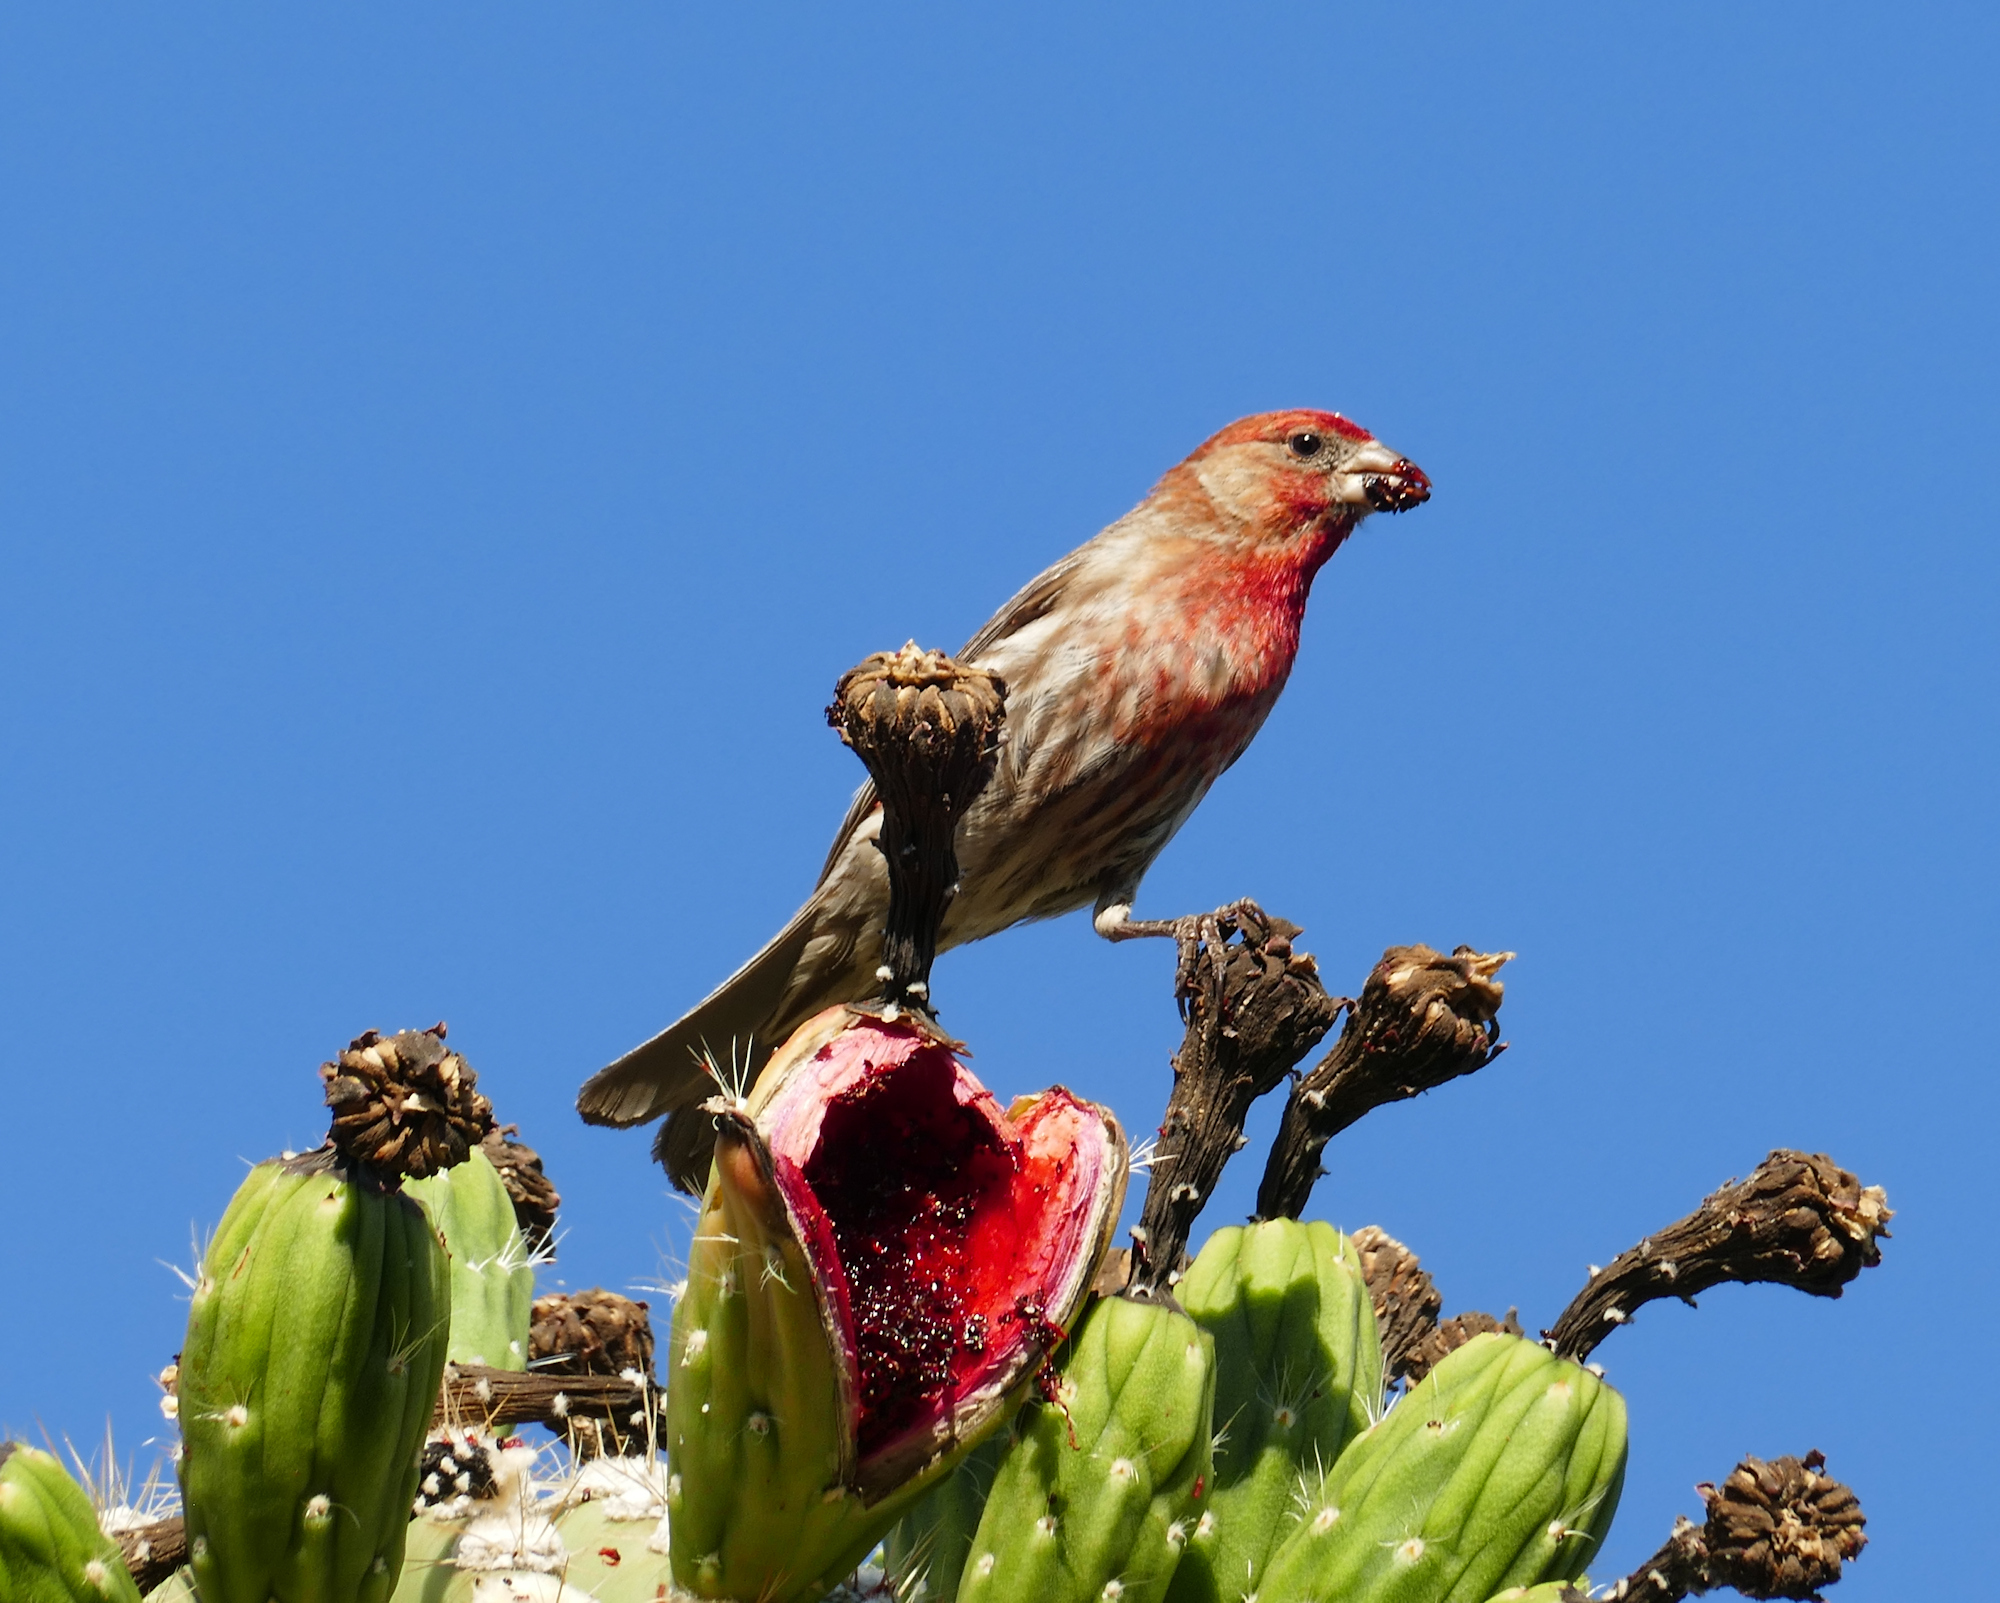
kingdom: Animalia
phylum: Chordata
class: Aves
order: Passeriformes
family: Fringillidae
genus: Haemorhous
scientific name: Haemorhous mexicanus
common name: House finch
